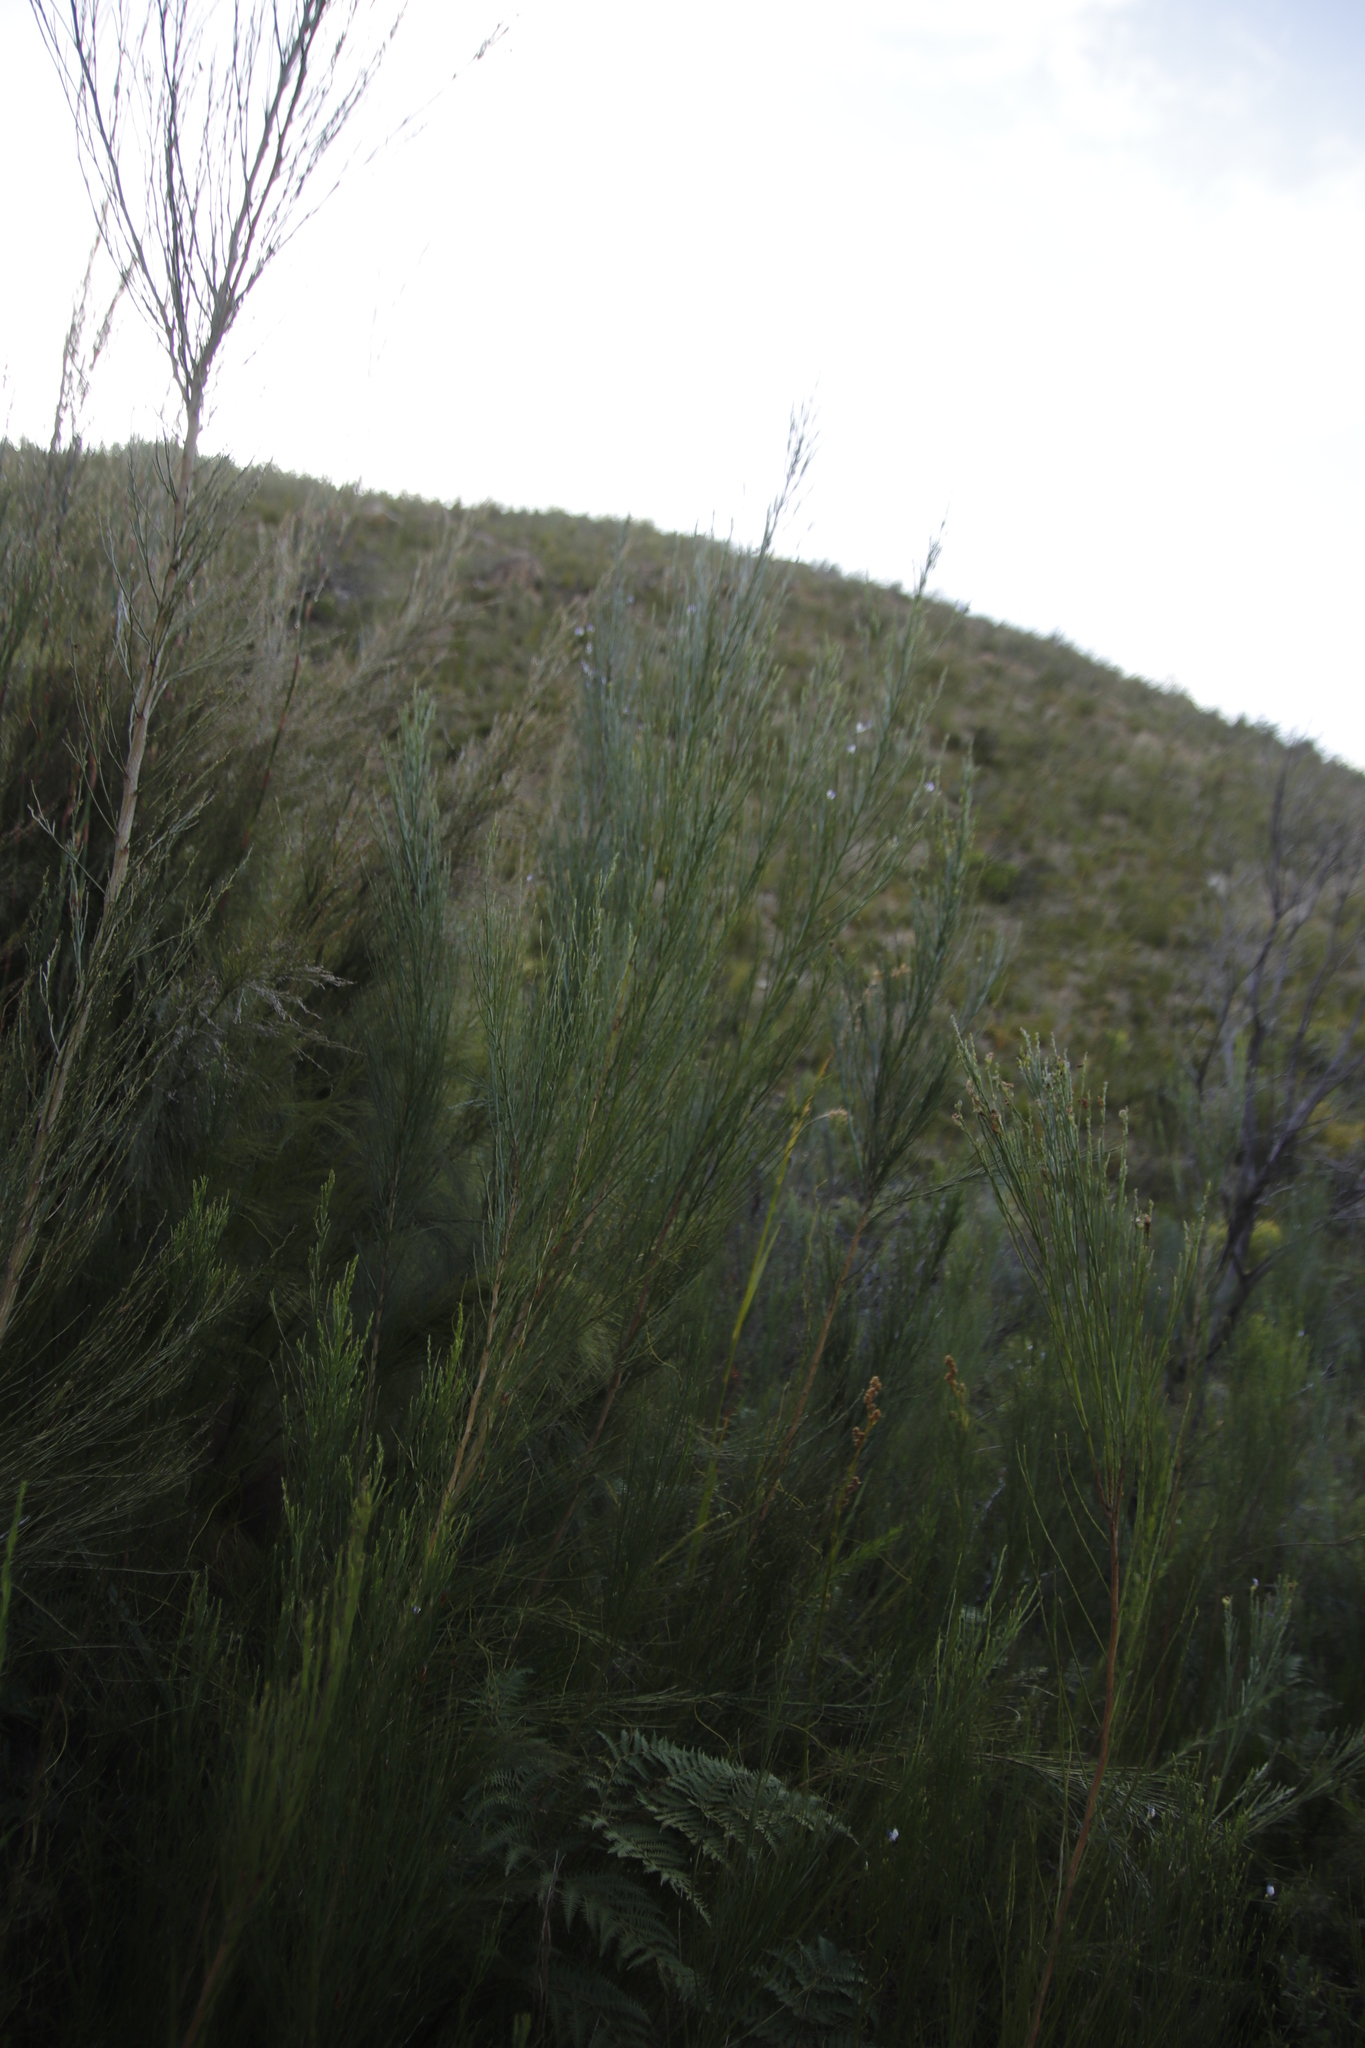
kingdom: Plantae
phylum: Tracheophyta
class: Magnoliopsida
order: Fabales
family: Fabaceae
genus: Psoralea
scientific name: Psoralea usitata
